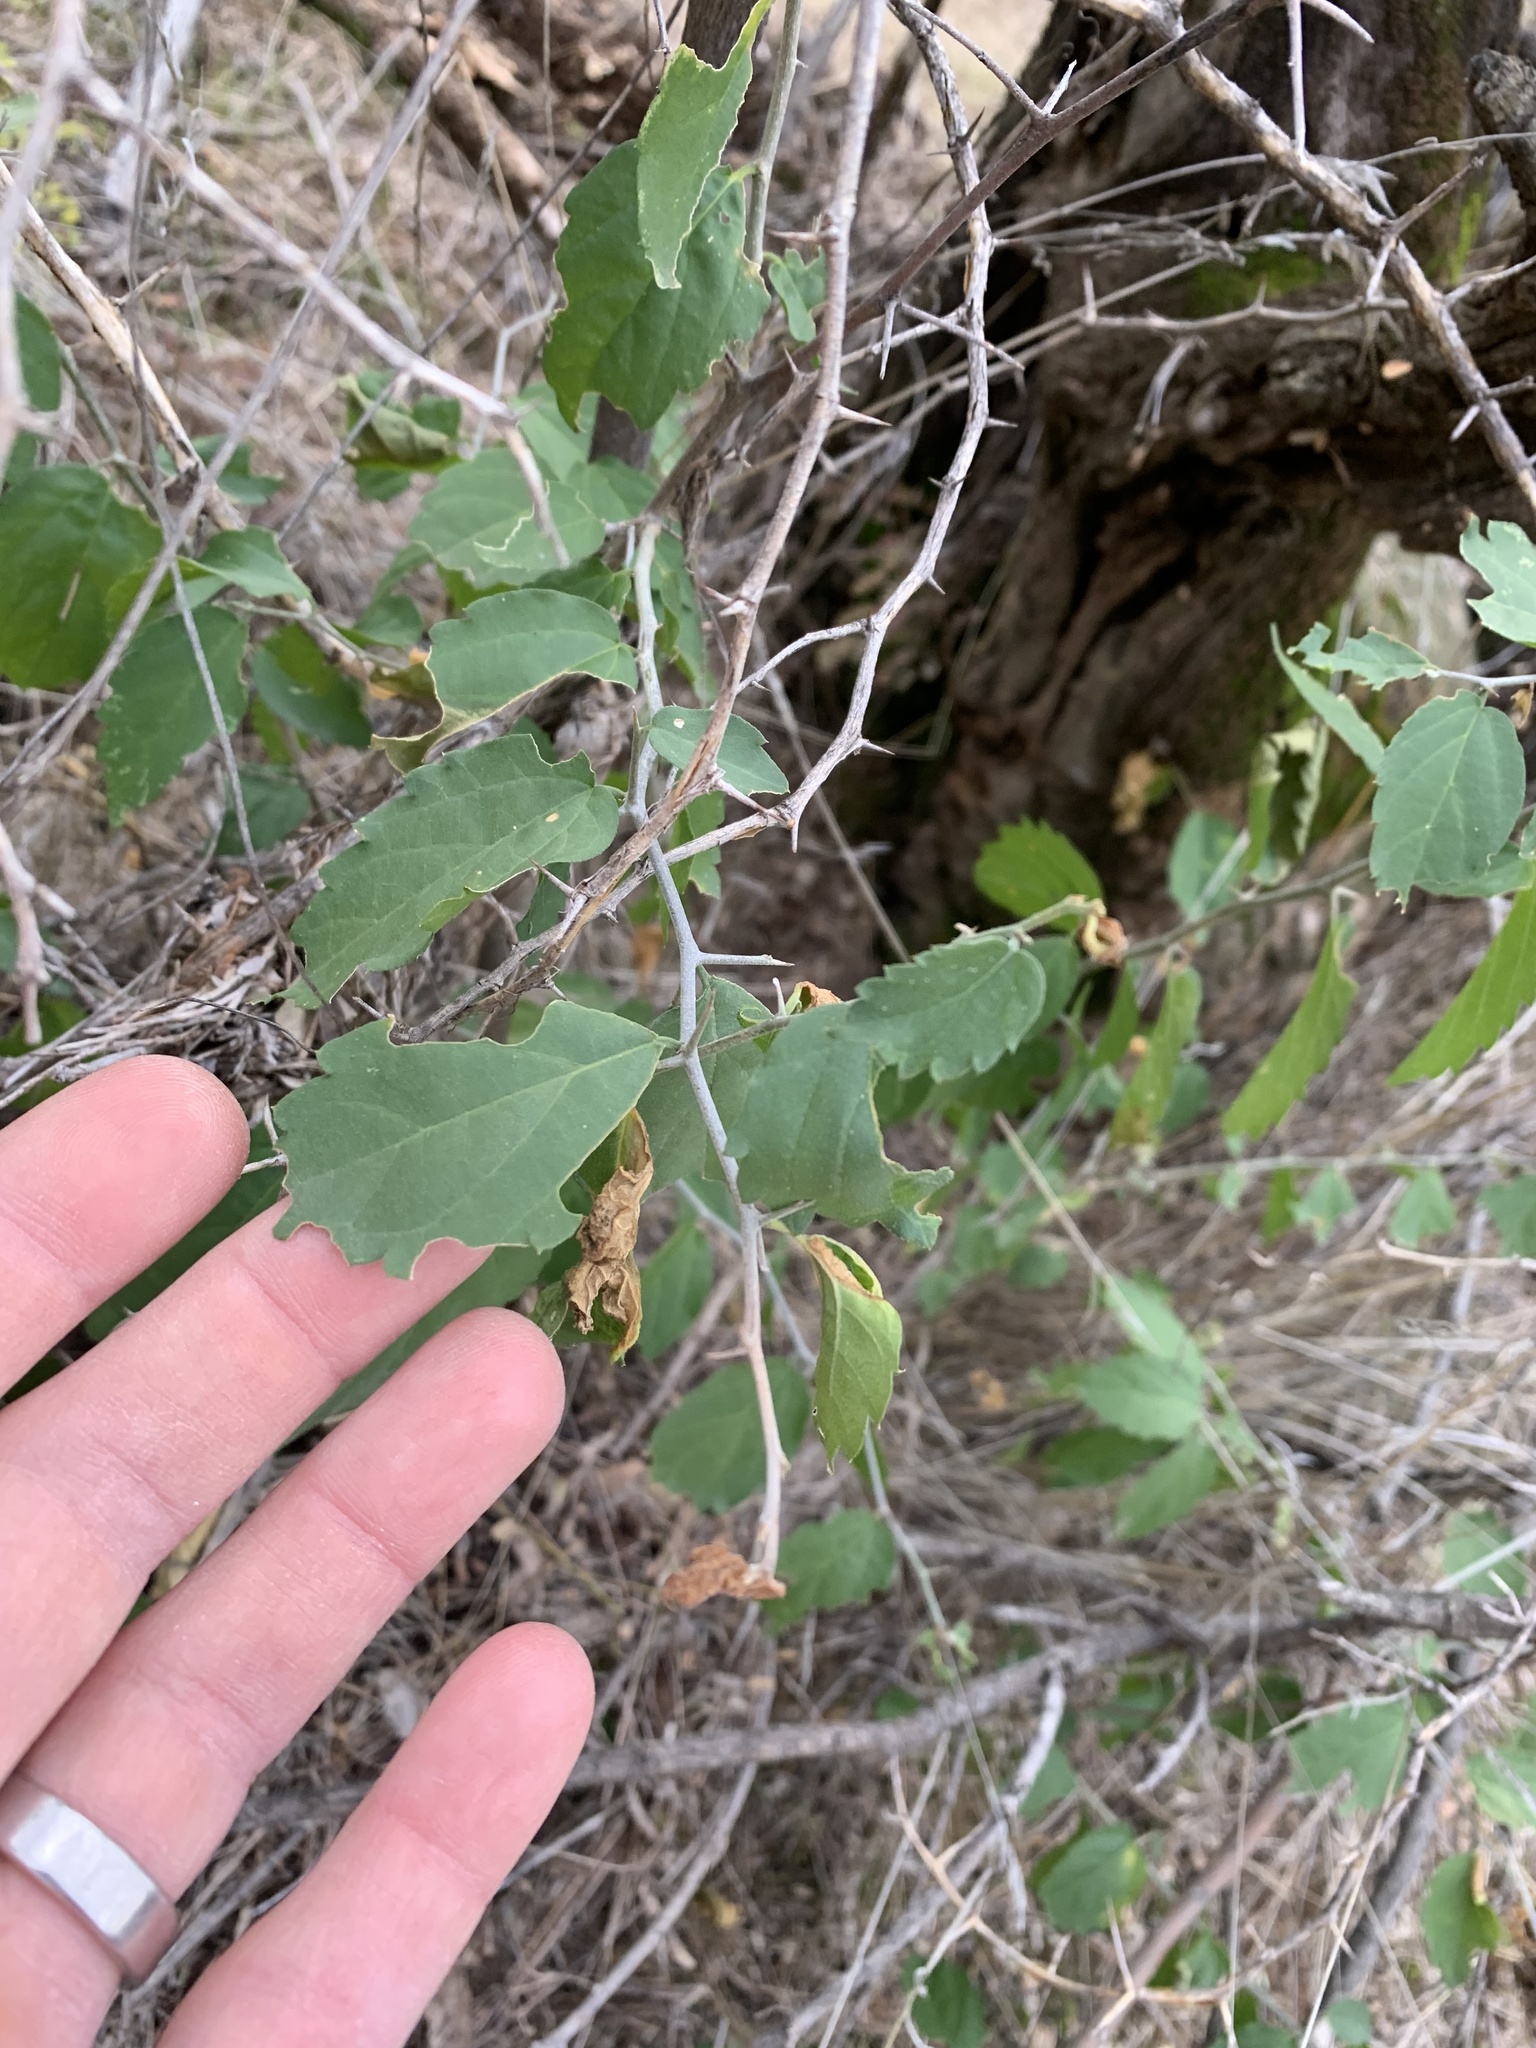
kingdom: Plantae
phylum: Tracheophyta
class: Magnoliopsida
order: Rosales
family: Cannabaceae
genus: Celtis
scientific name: Celtis pallida
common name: Desert hackberry
